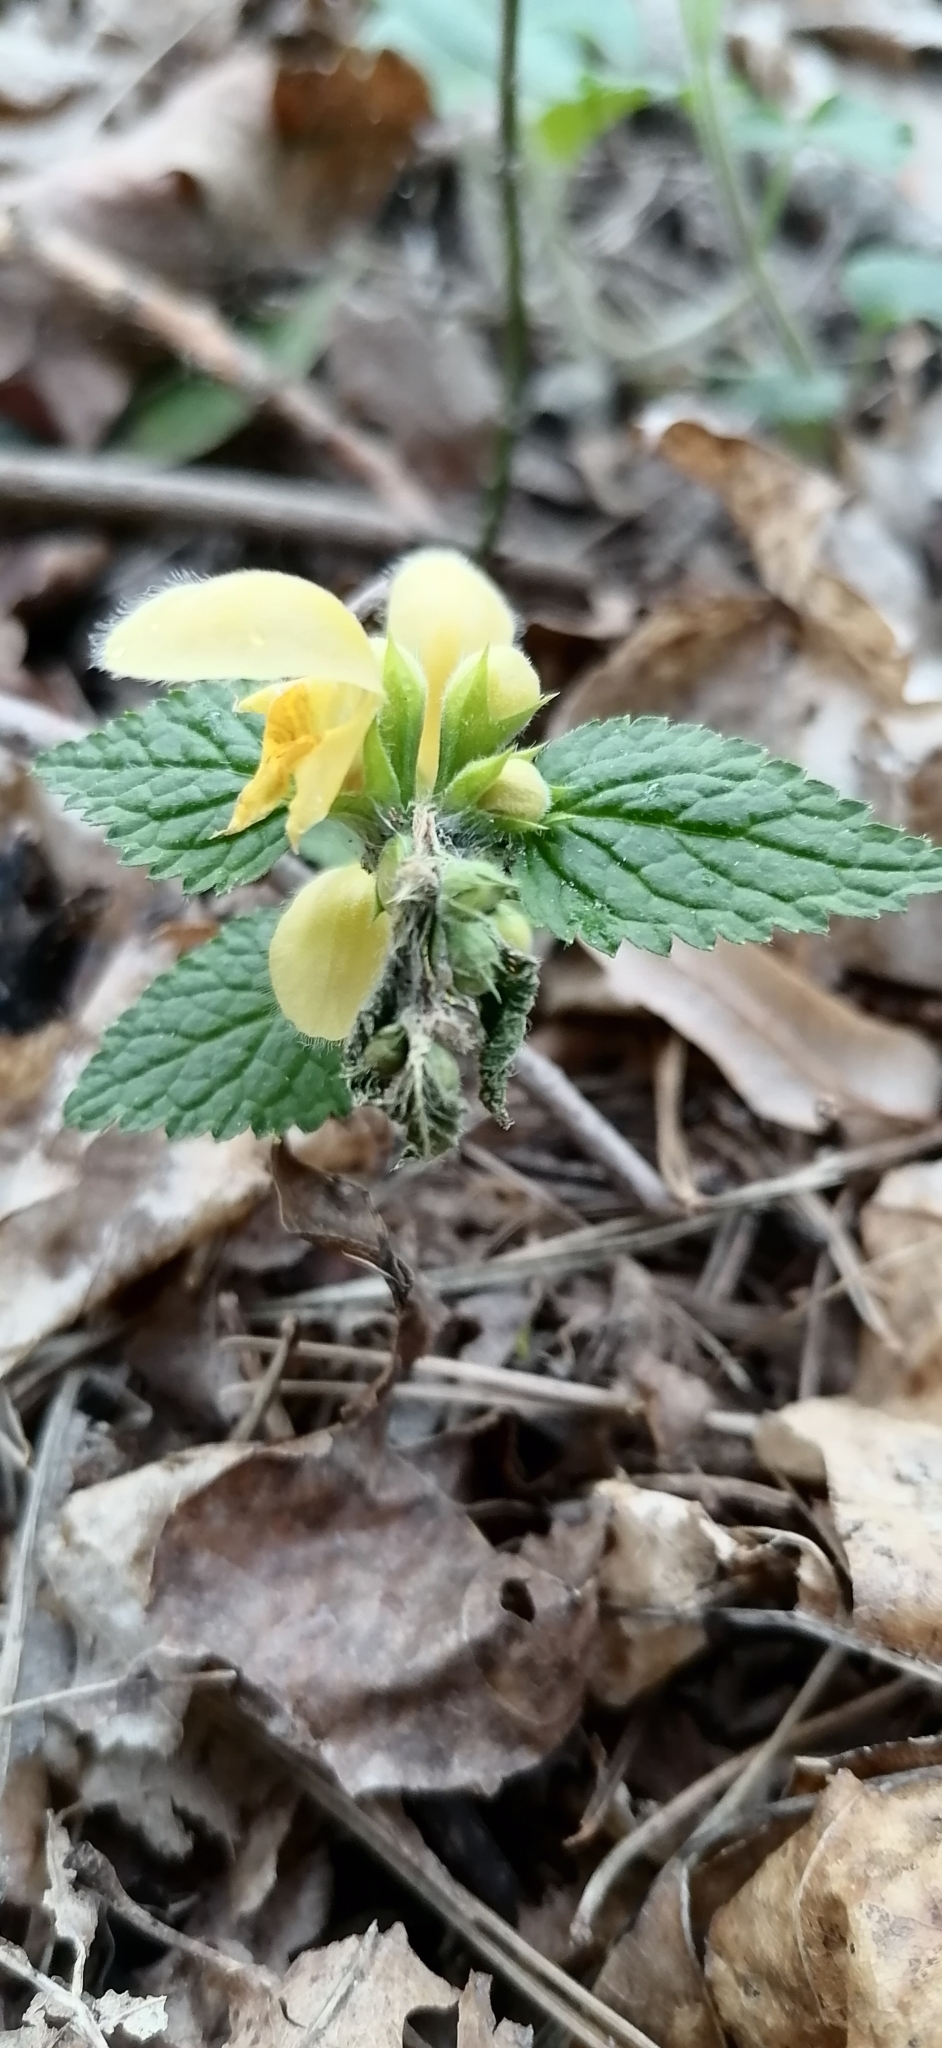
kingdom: Plantae
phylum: Tracheophyta
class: Magnoliopsida
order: Lamiales
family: Lamiaceae
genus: Lamium
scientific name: Lamium galeobdolon
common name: Yellow archangel
